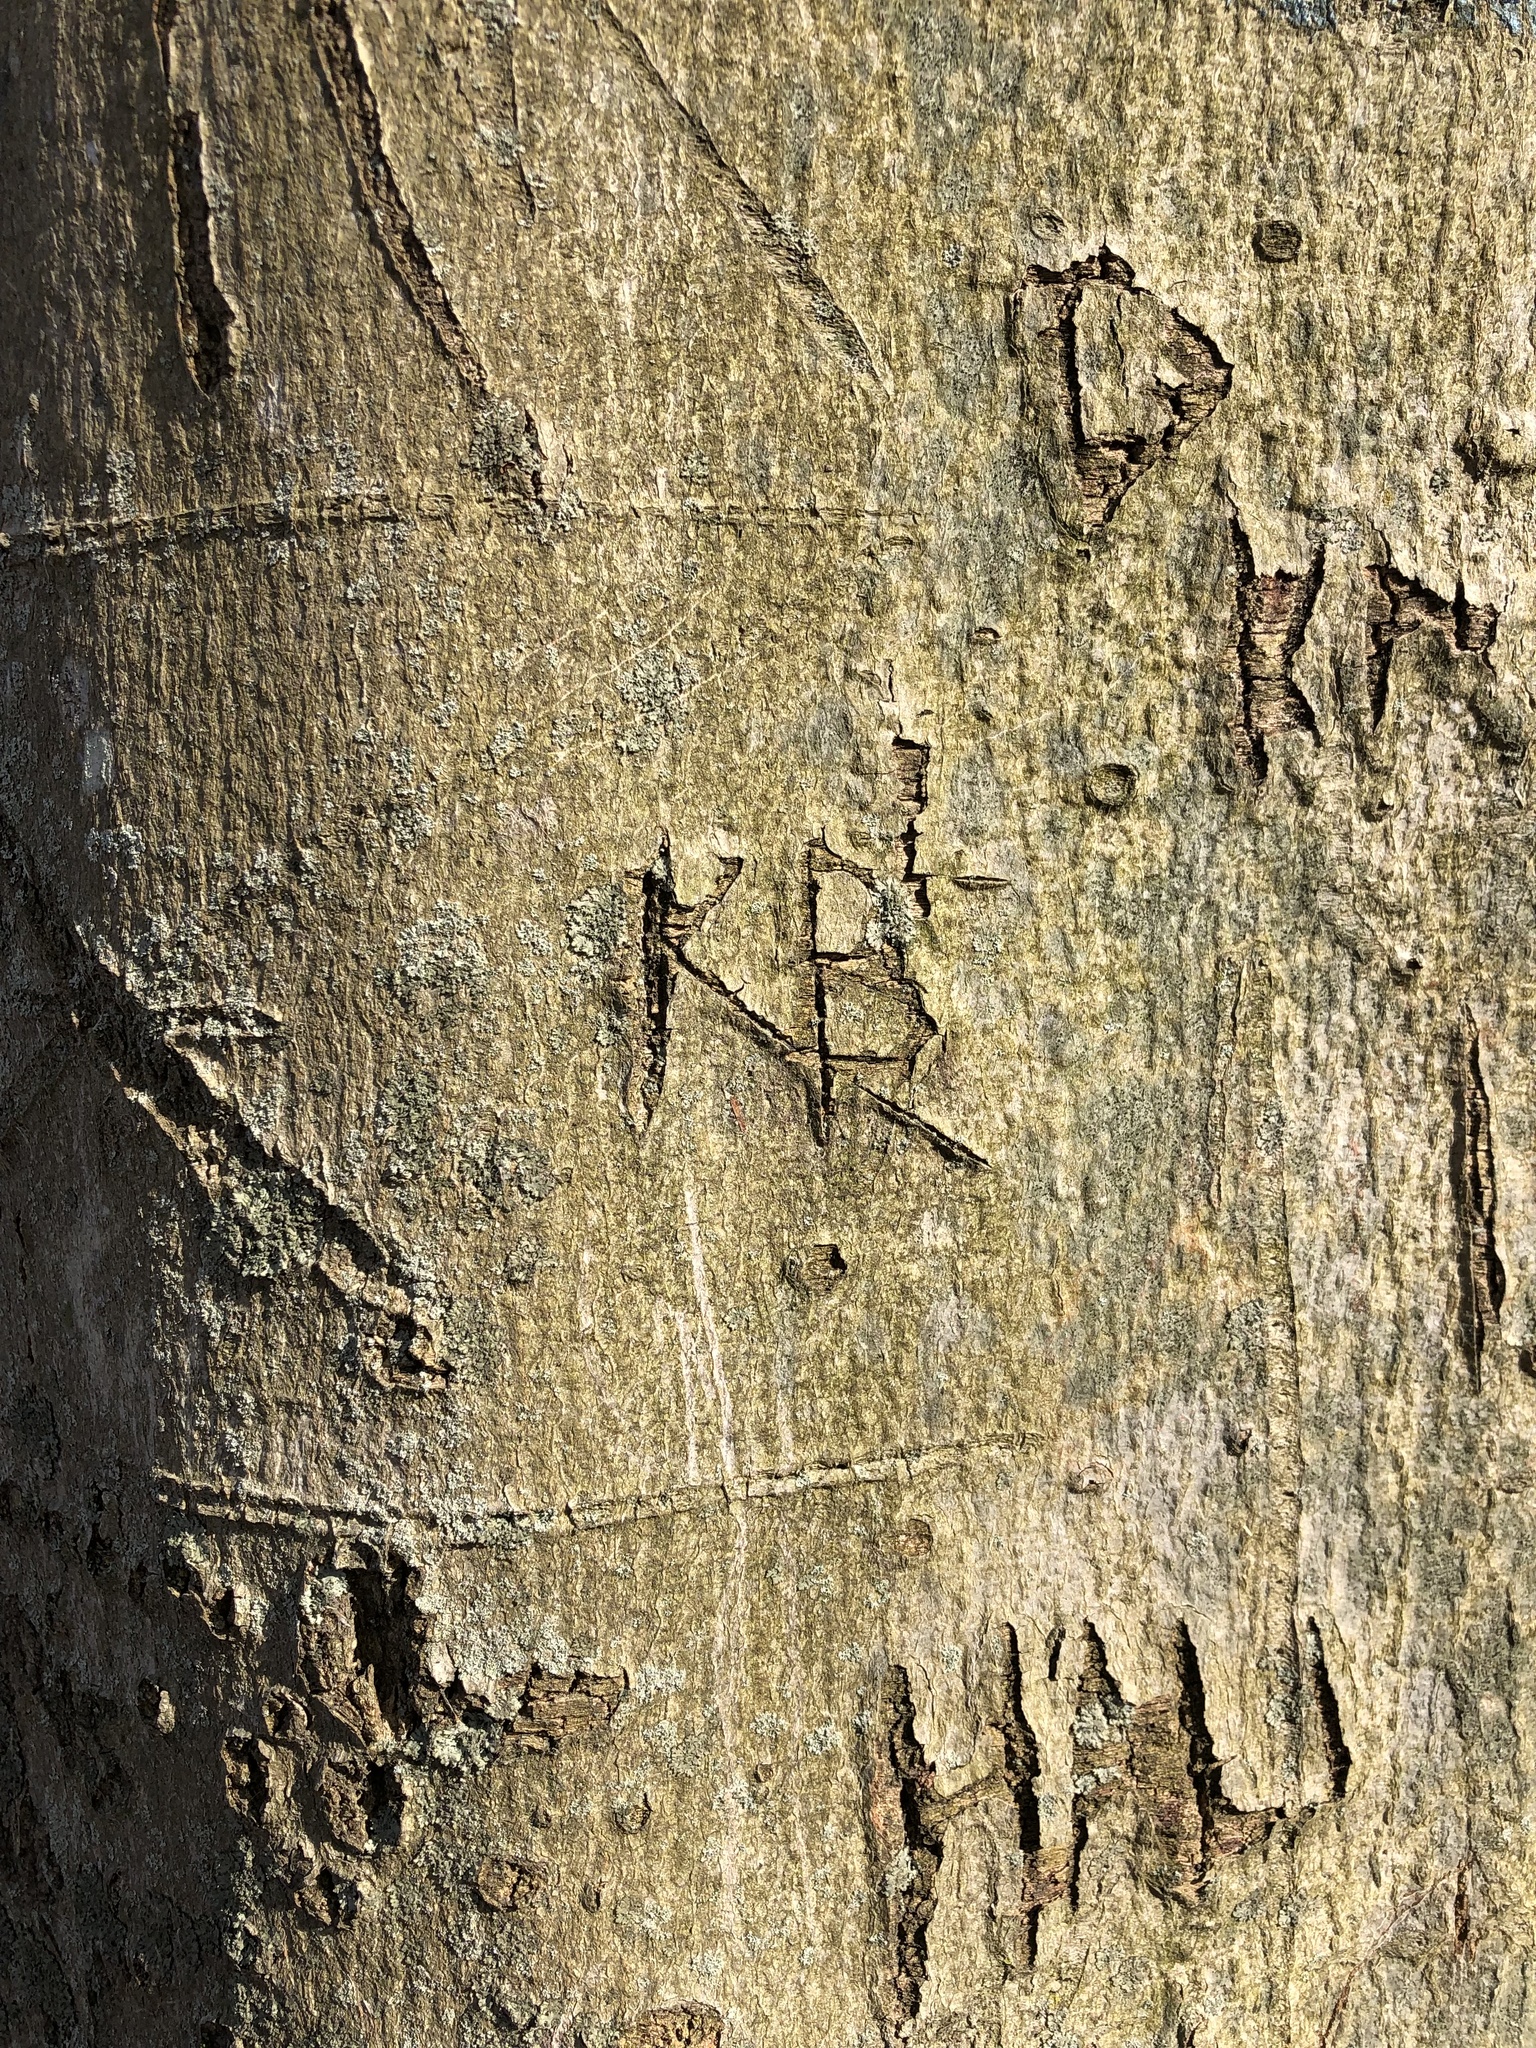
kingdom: Plantae
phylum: Tracheophyta
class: Magnoliopsida
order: Fagales
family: Fagaceae
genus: Fagus
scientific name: Fagus grandifolia
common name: American beech
